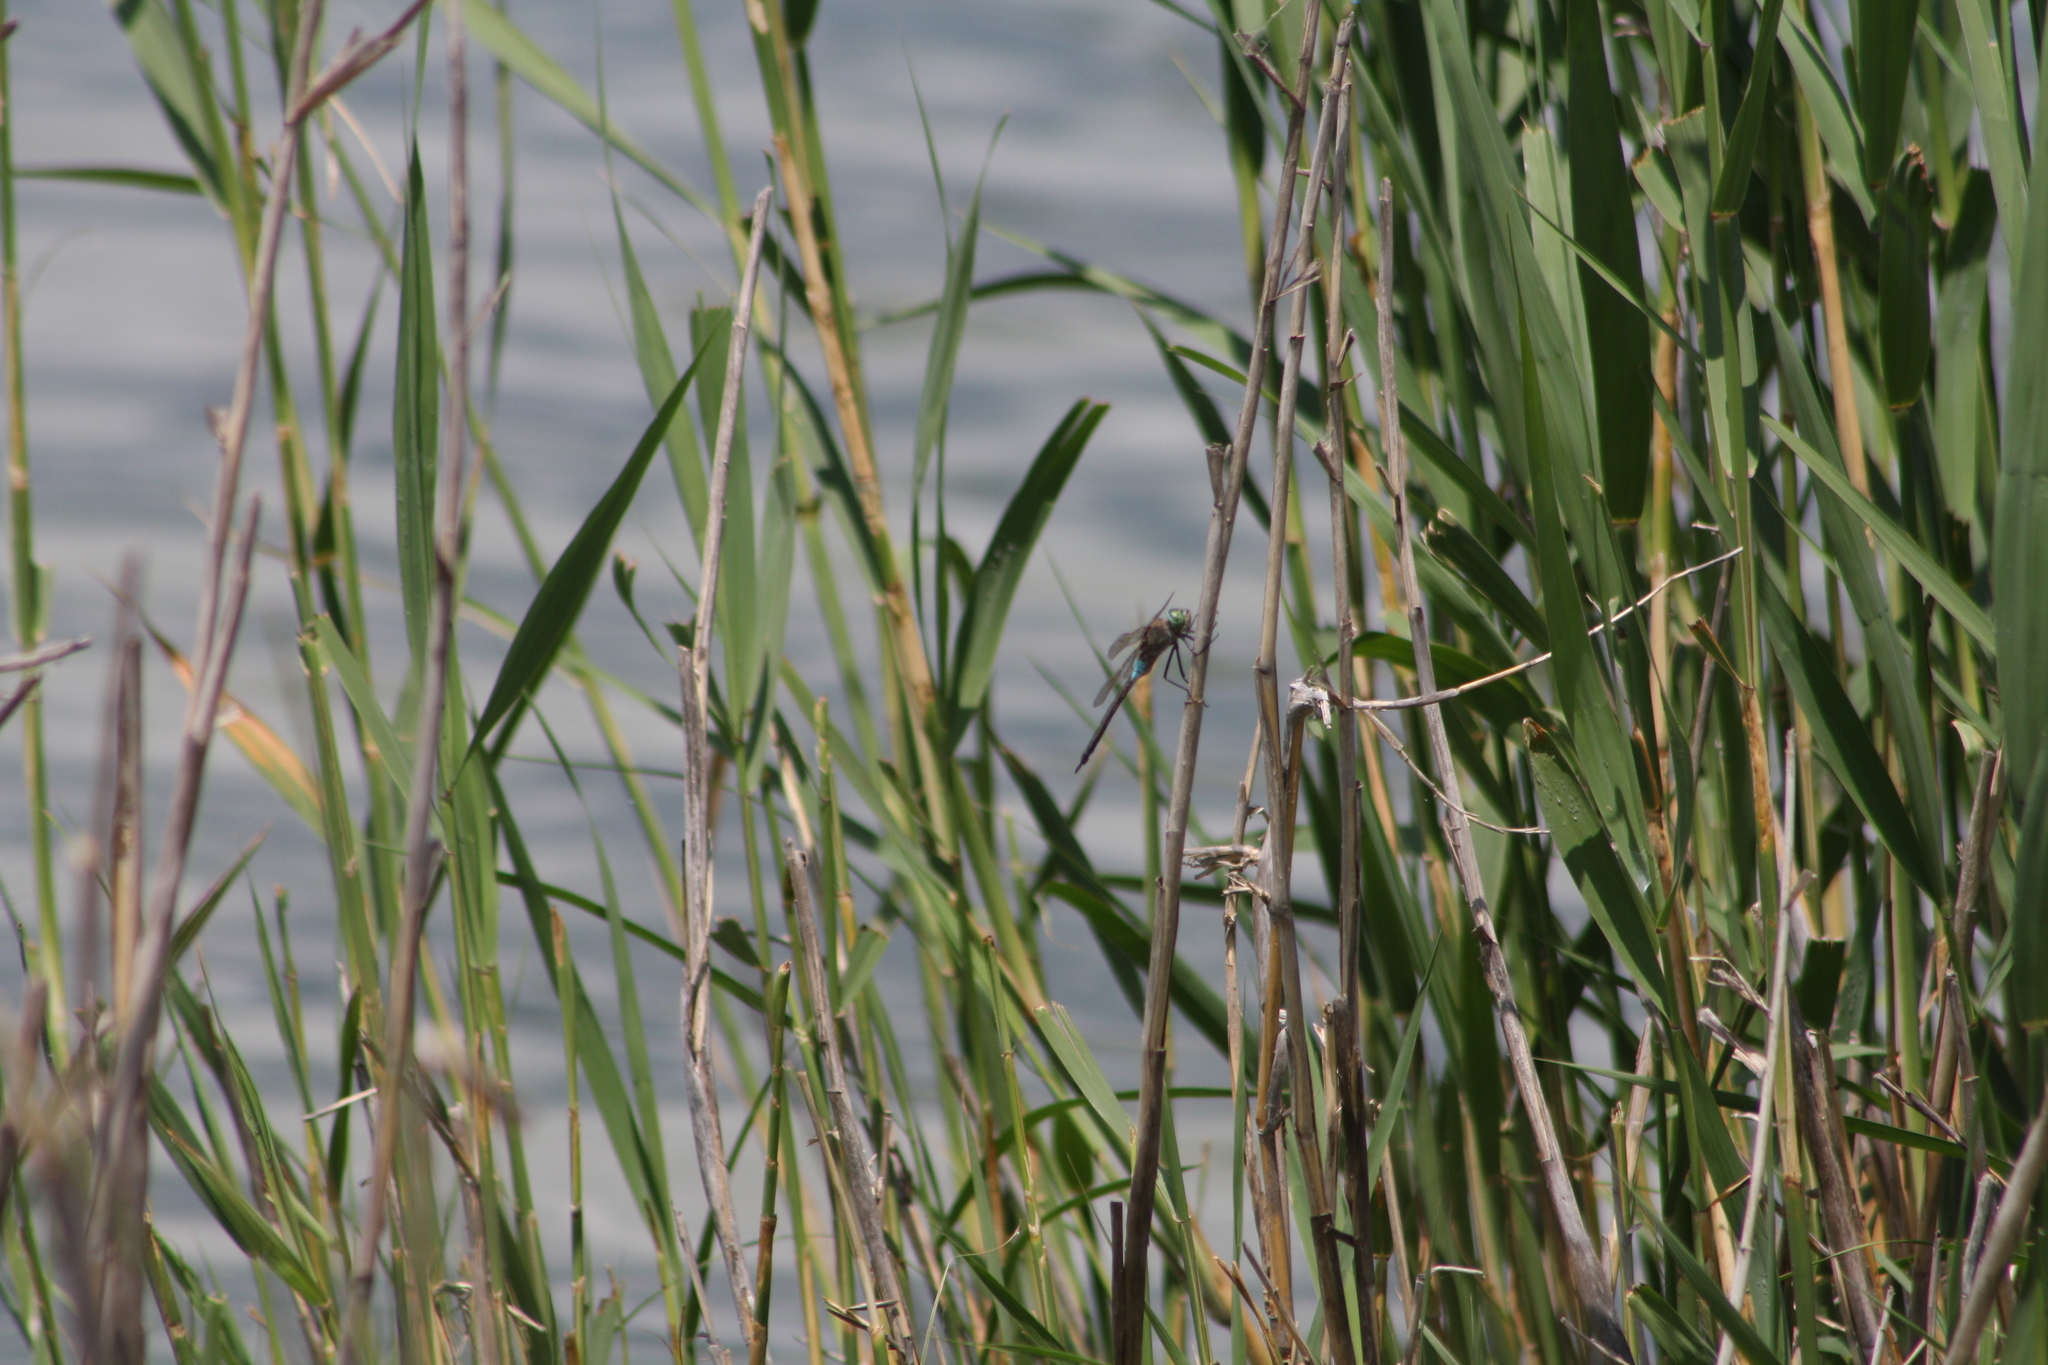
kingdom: Animalia
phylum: Arthropoda
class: Insecta
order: Odonata
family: Aeshnidae
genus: Anax
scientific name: Anax parthenope
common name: Lesser emperor
